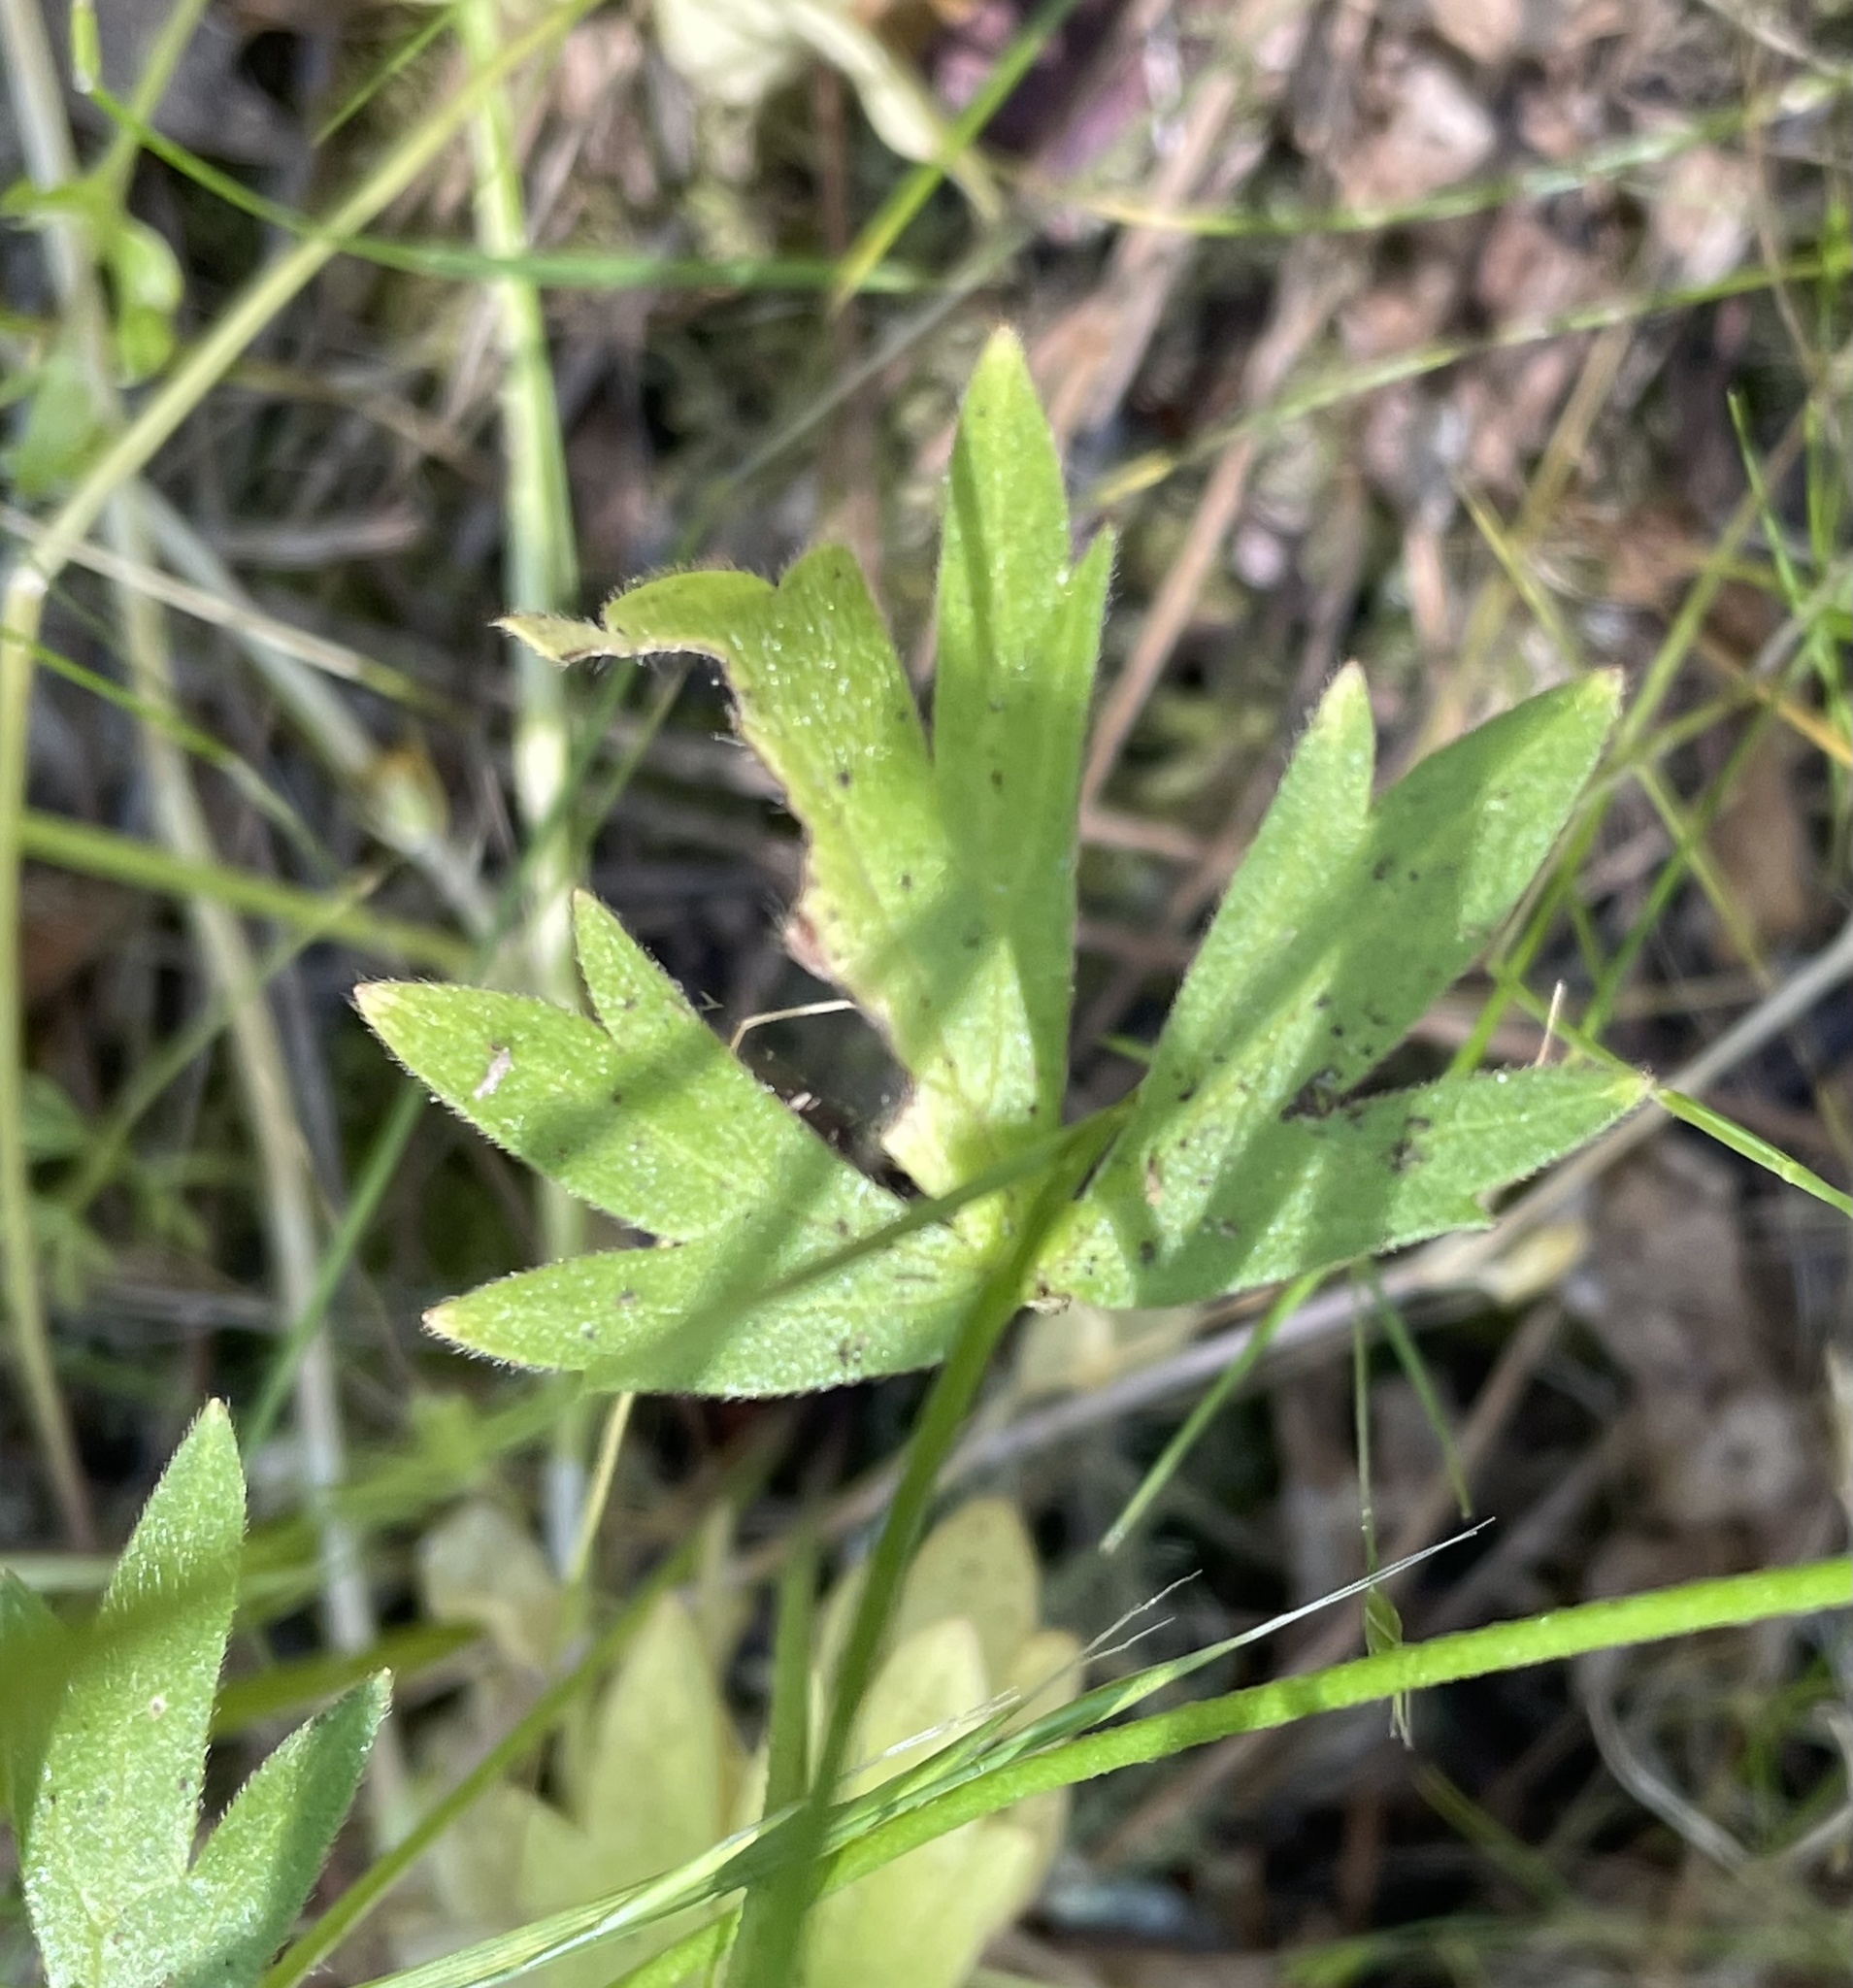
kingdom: Plantae
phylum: Tracheophyta
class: Magnoliopsida
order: Ranunculales
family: Ranunculaceae
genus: Ranunculus
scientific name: Ranunculus californicus
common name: California buttercup
